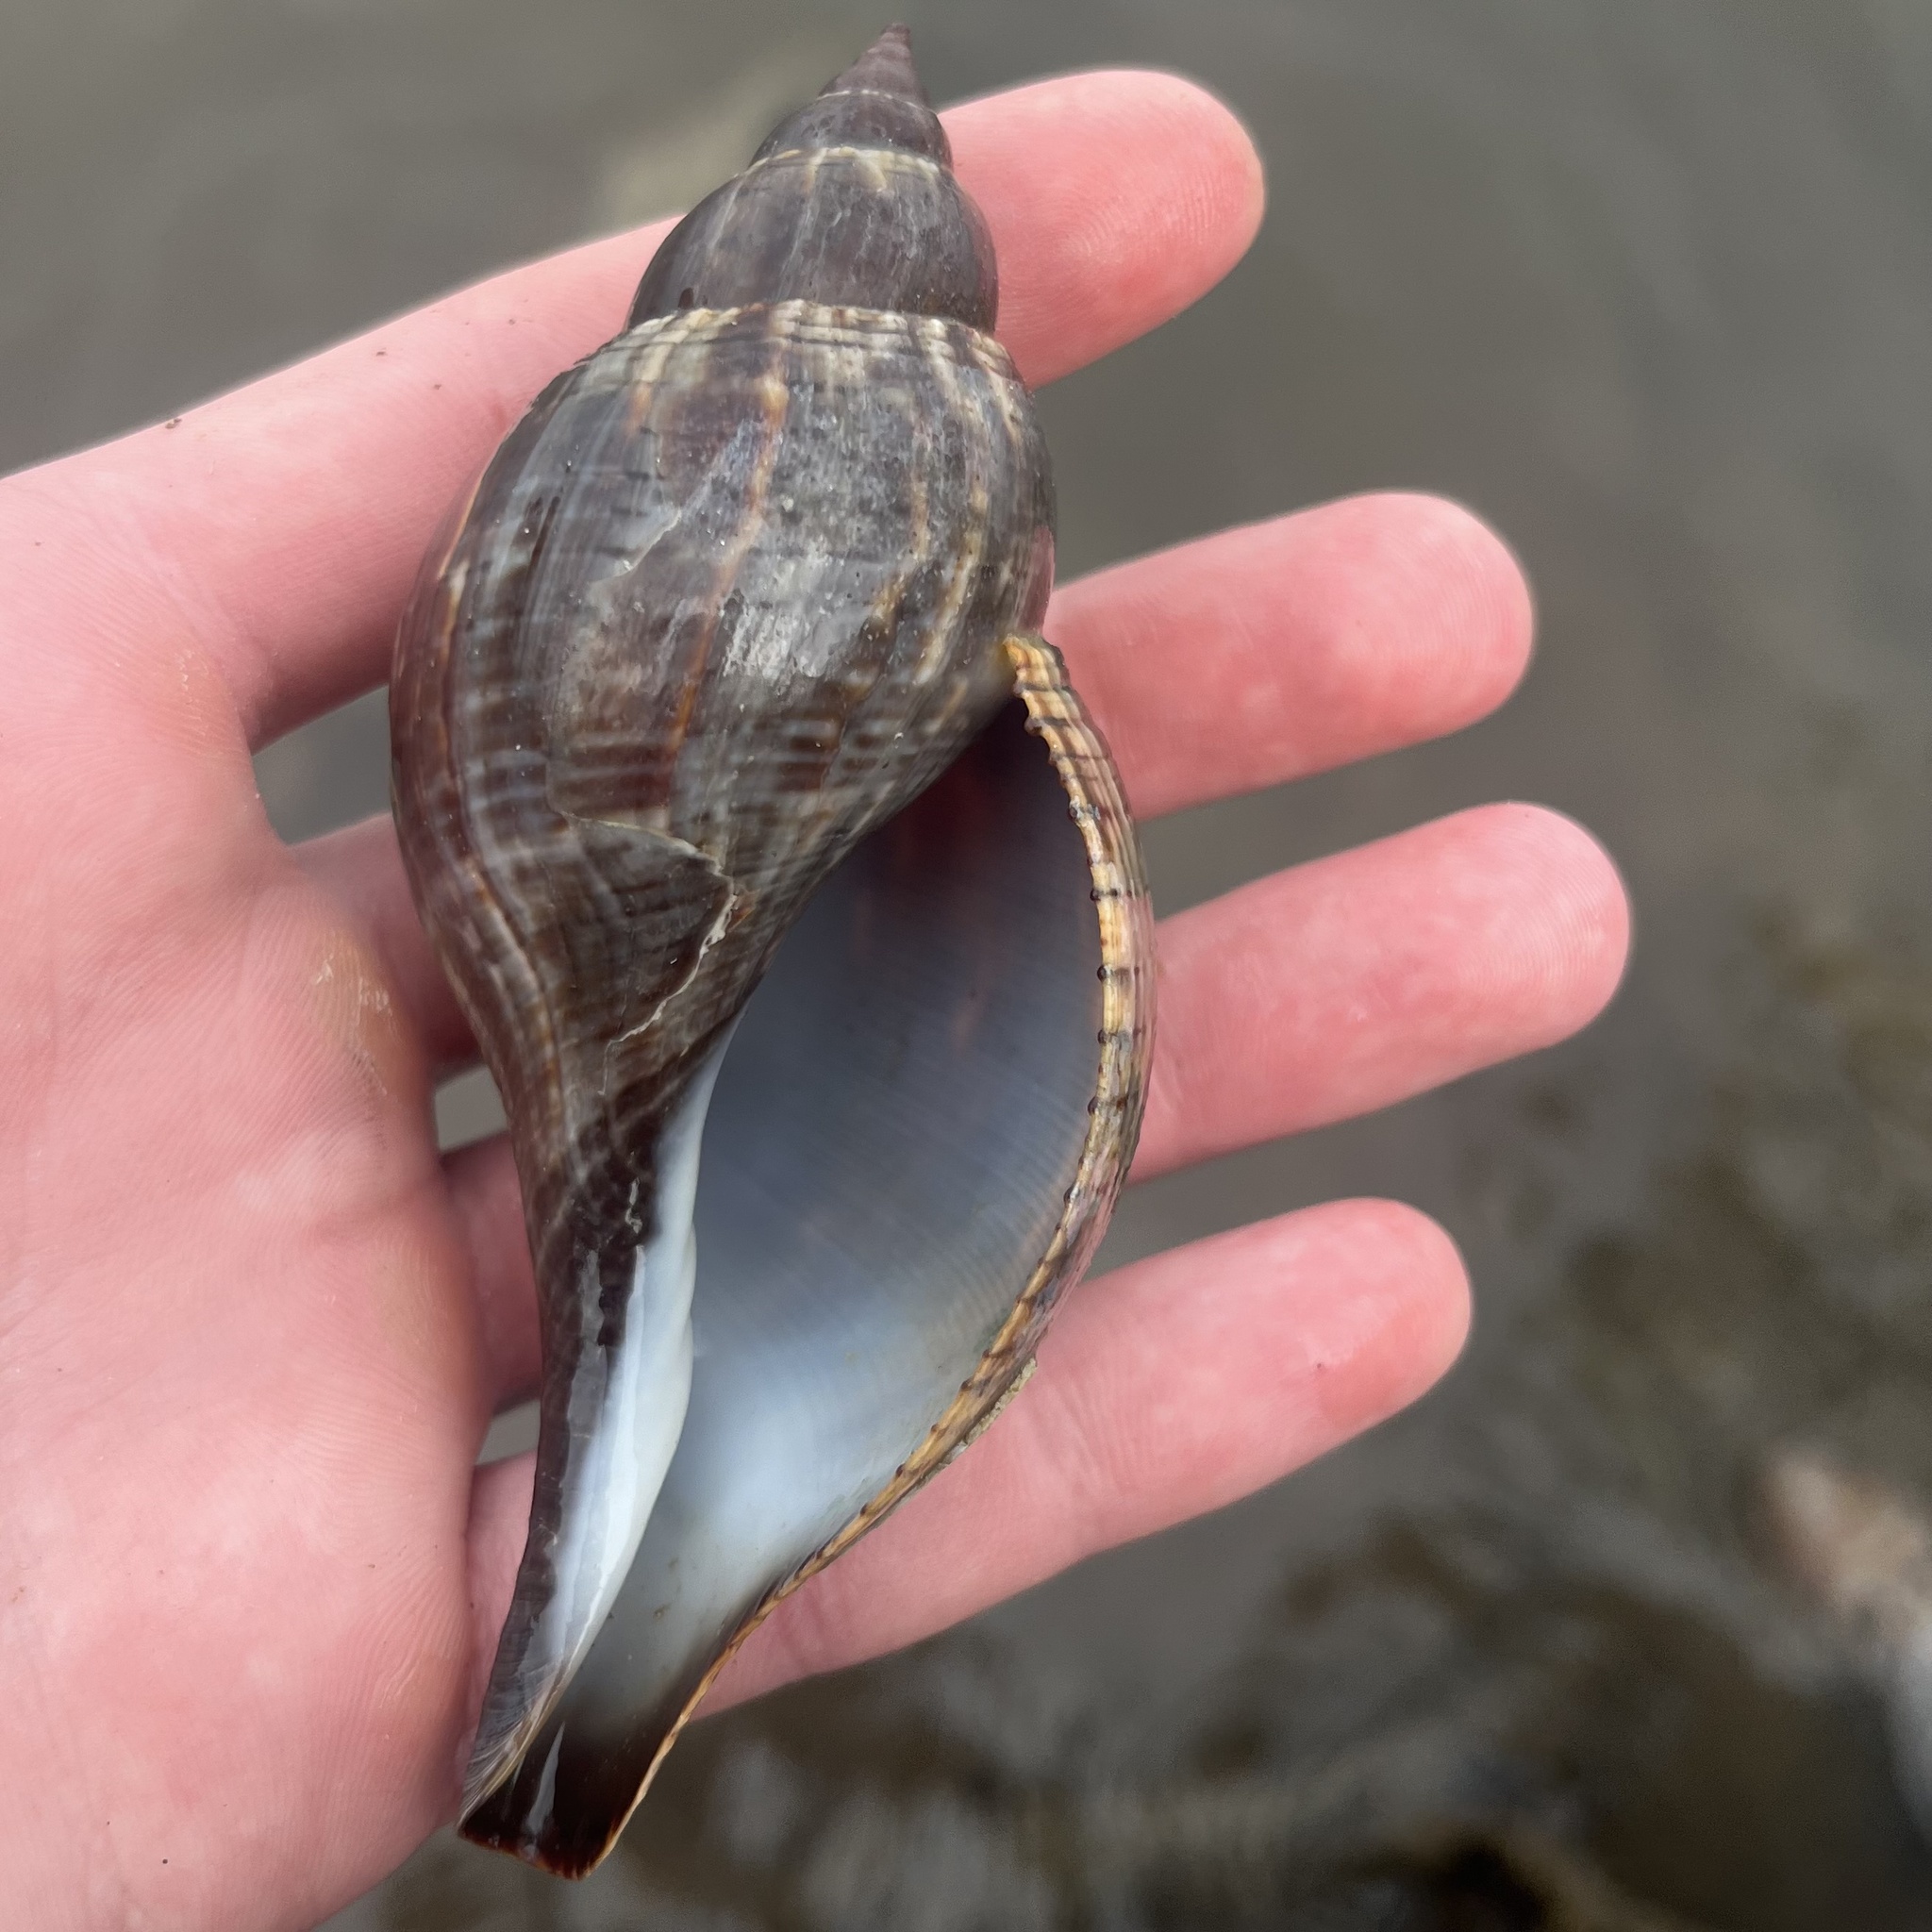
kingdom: Animalia
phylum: Mollusca
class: Gastropoda
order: Neogastropoda
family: Fasciolariidae
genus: Fasciolaria
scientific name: Fasciolaria tulipa
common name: True tulip
